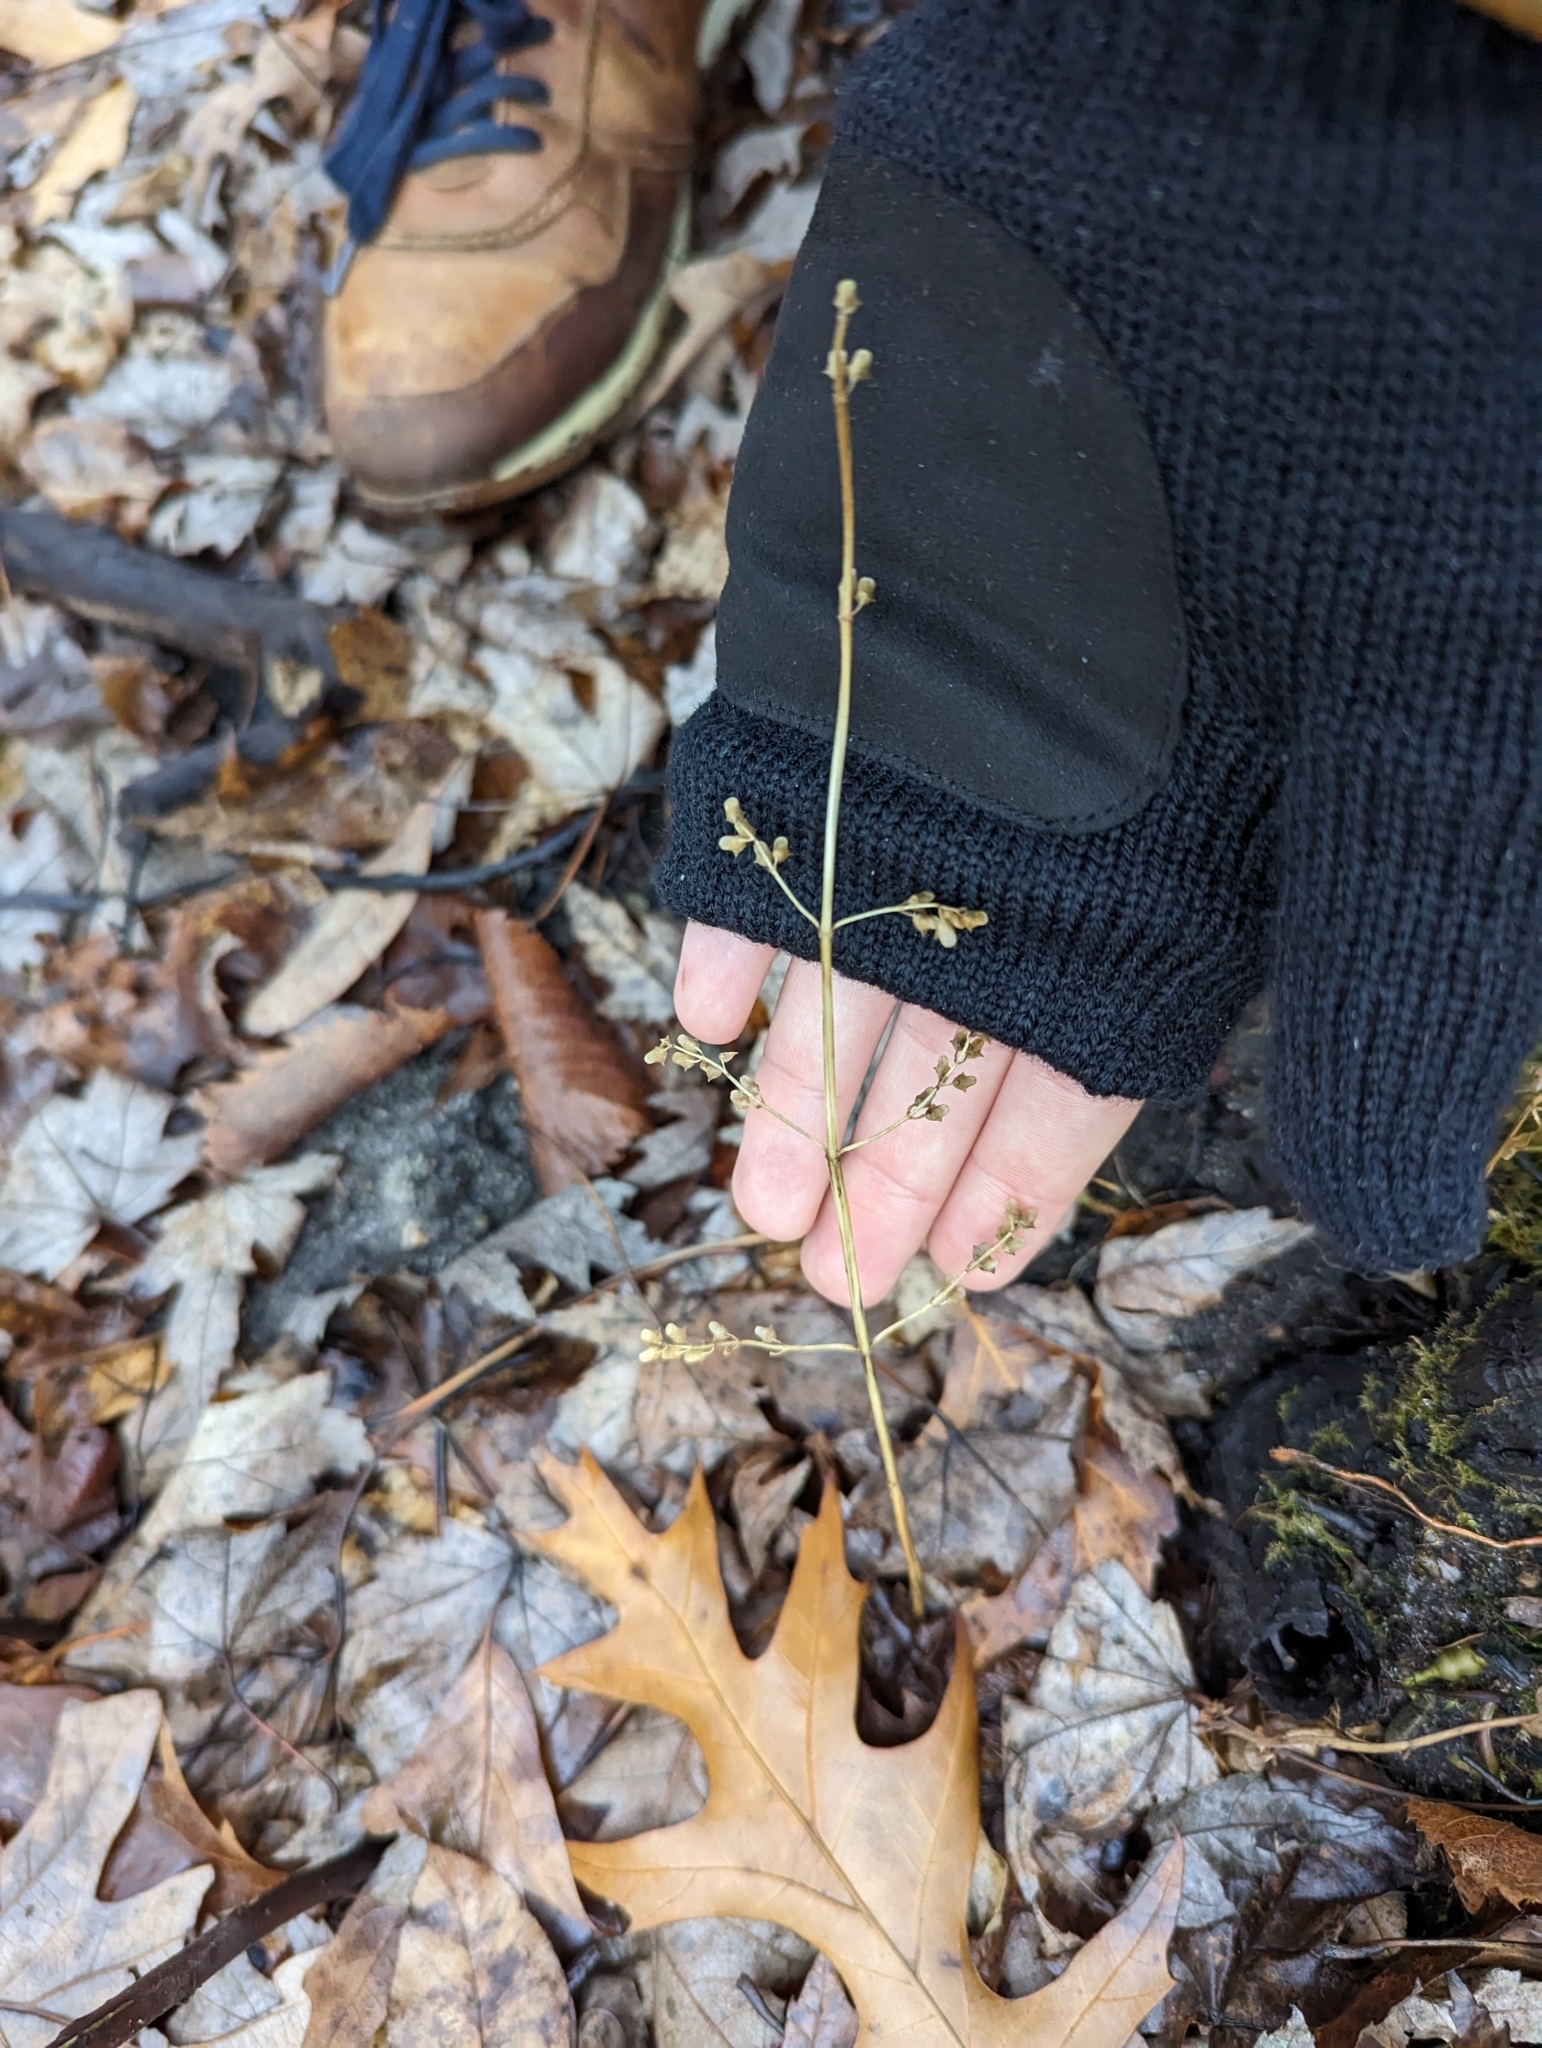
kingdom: Plantae
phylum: Tracheophyta
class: Magnoliopsida
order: Lamiales
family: Lamiaceae
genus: Scutellaria
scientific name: Scutellaria lateriflora
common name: Blue skullcap
